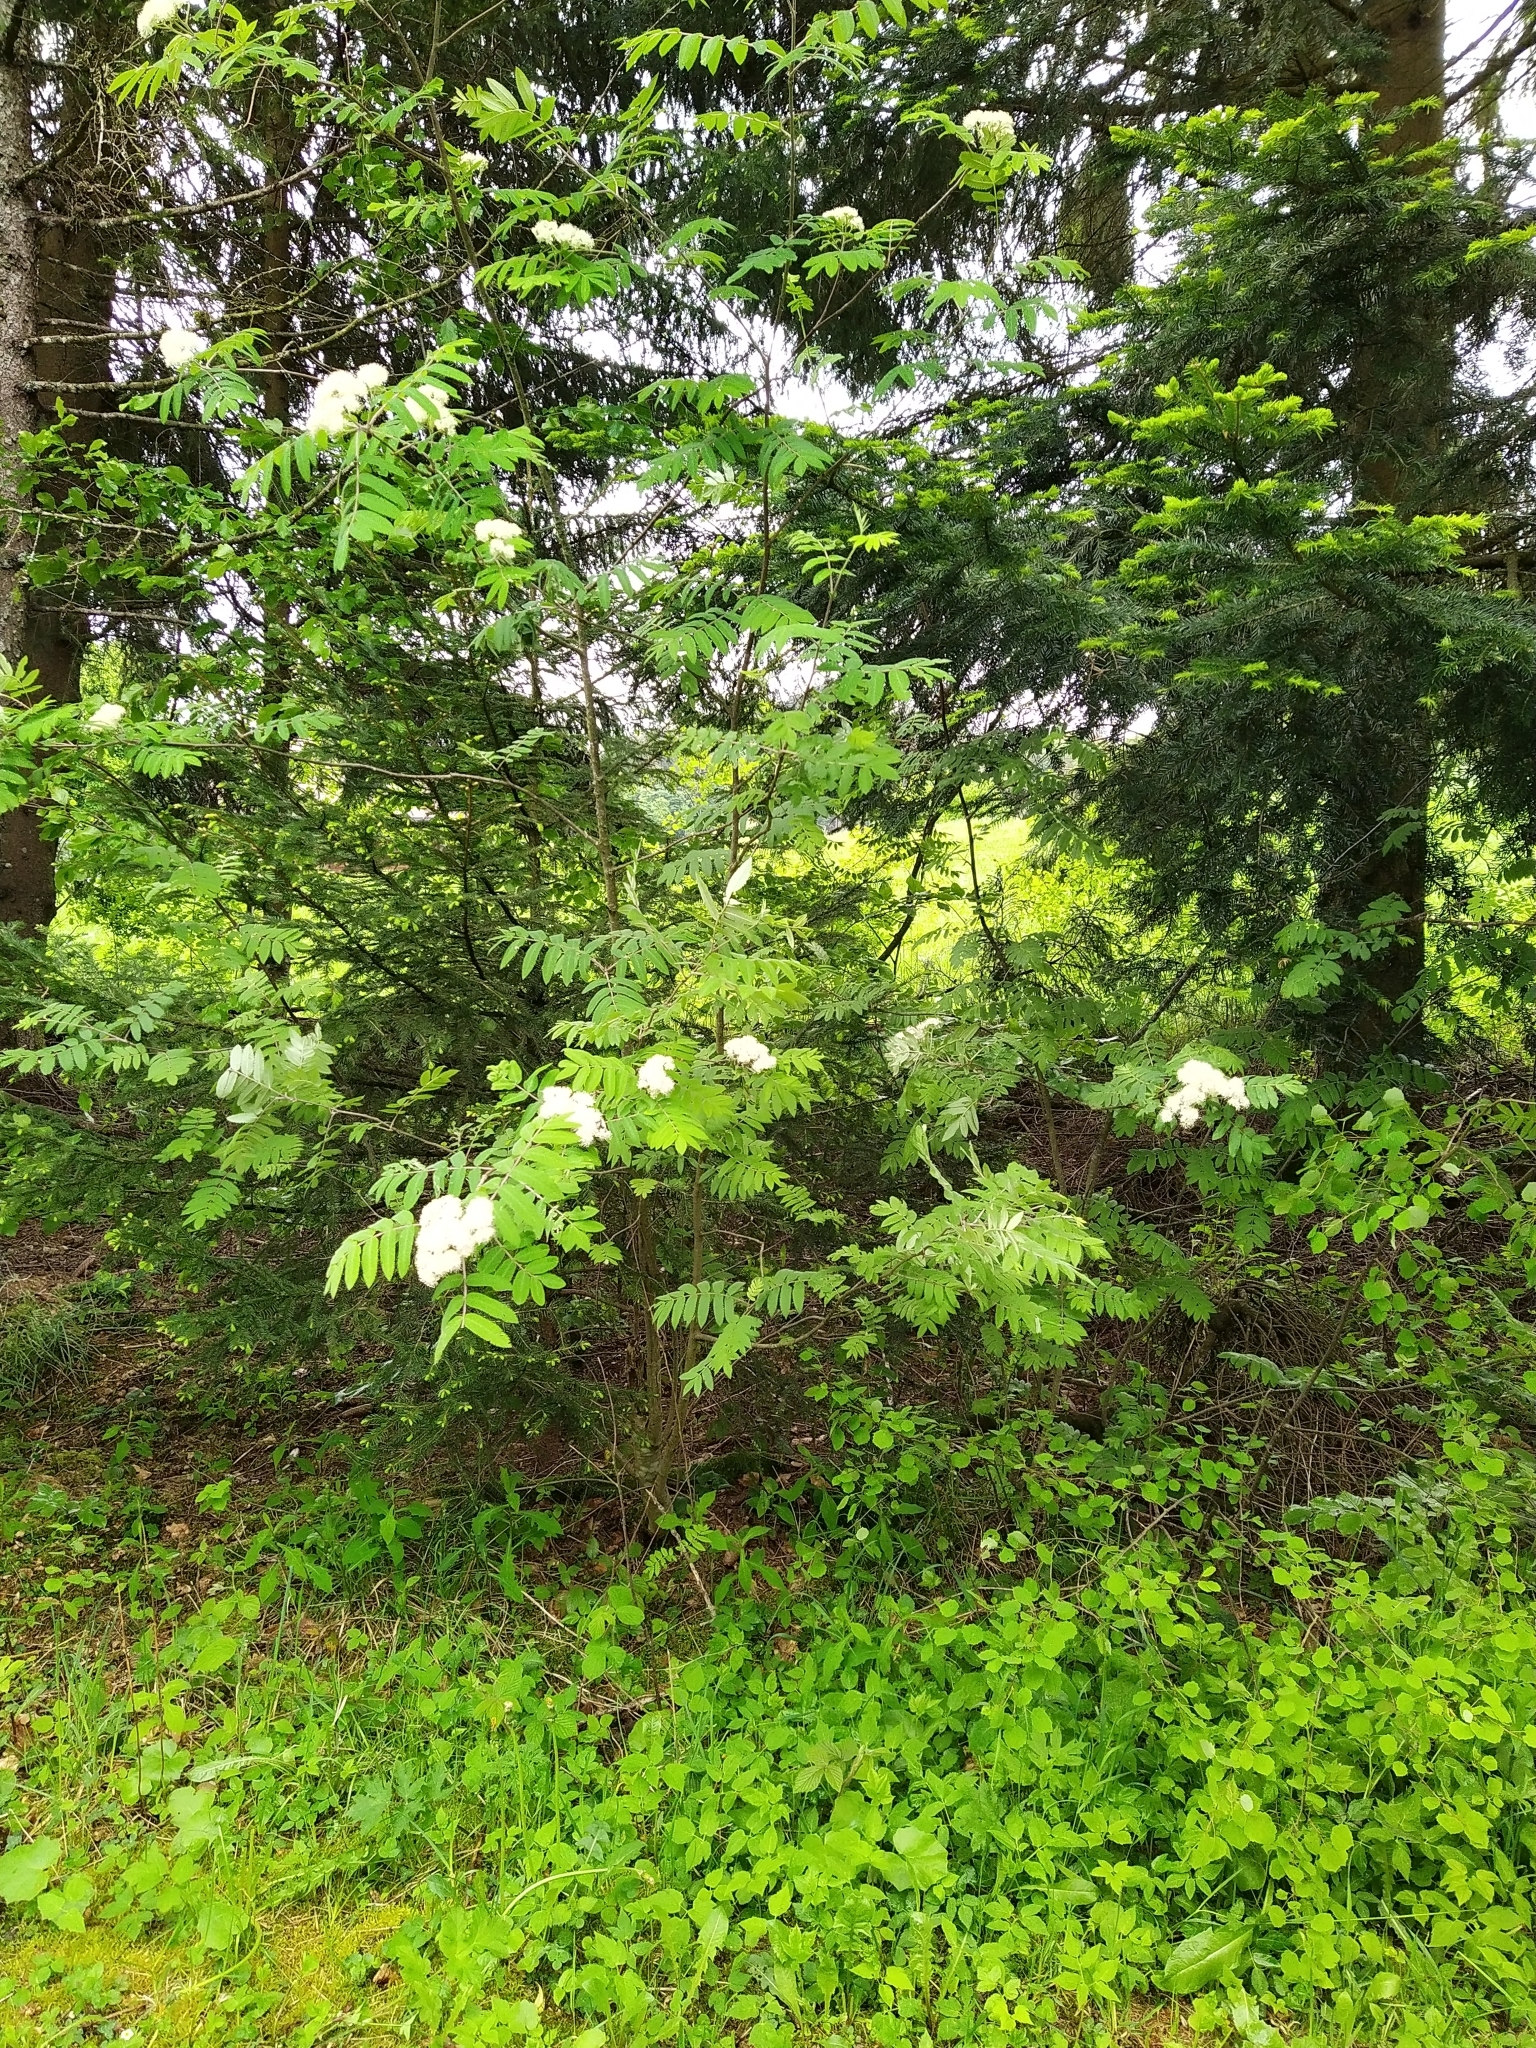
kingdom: Plantae
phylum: Tracheophyta
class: Magnoliopsida
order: Rosales
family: Rosaceae
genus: Sorbus
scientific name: Sorbus aucuparia
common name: Rowan
